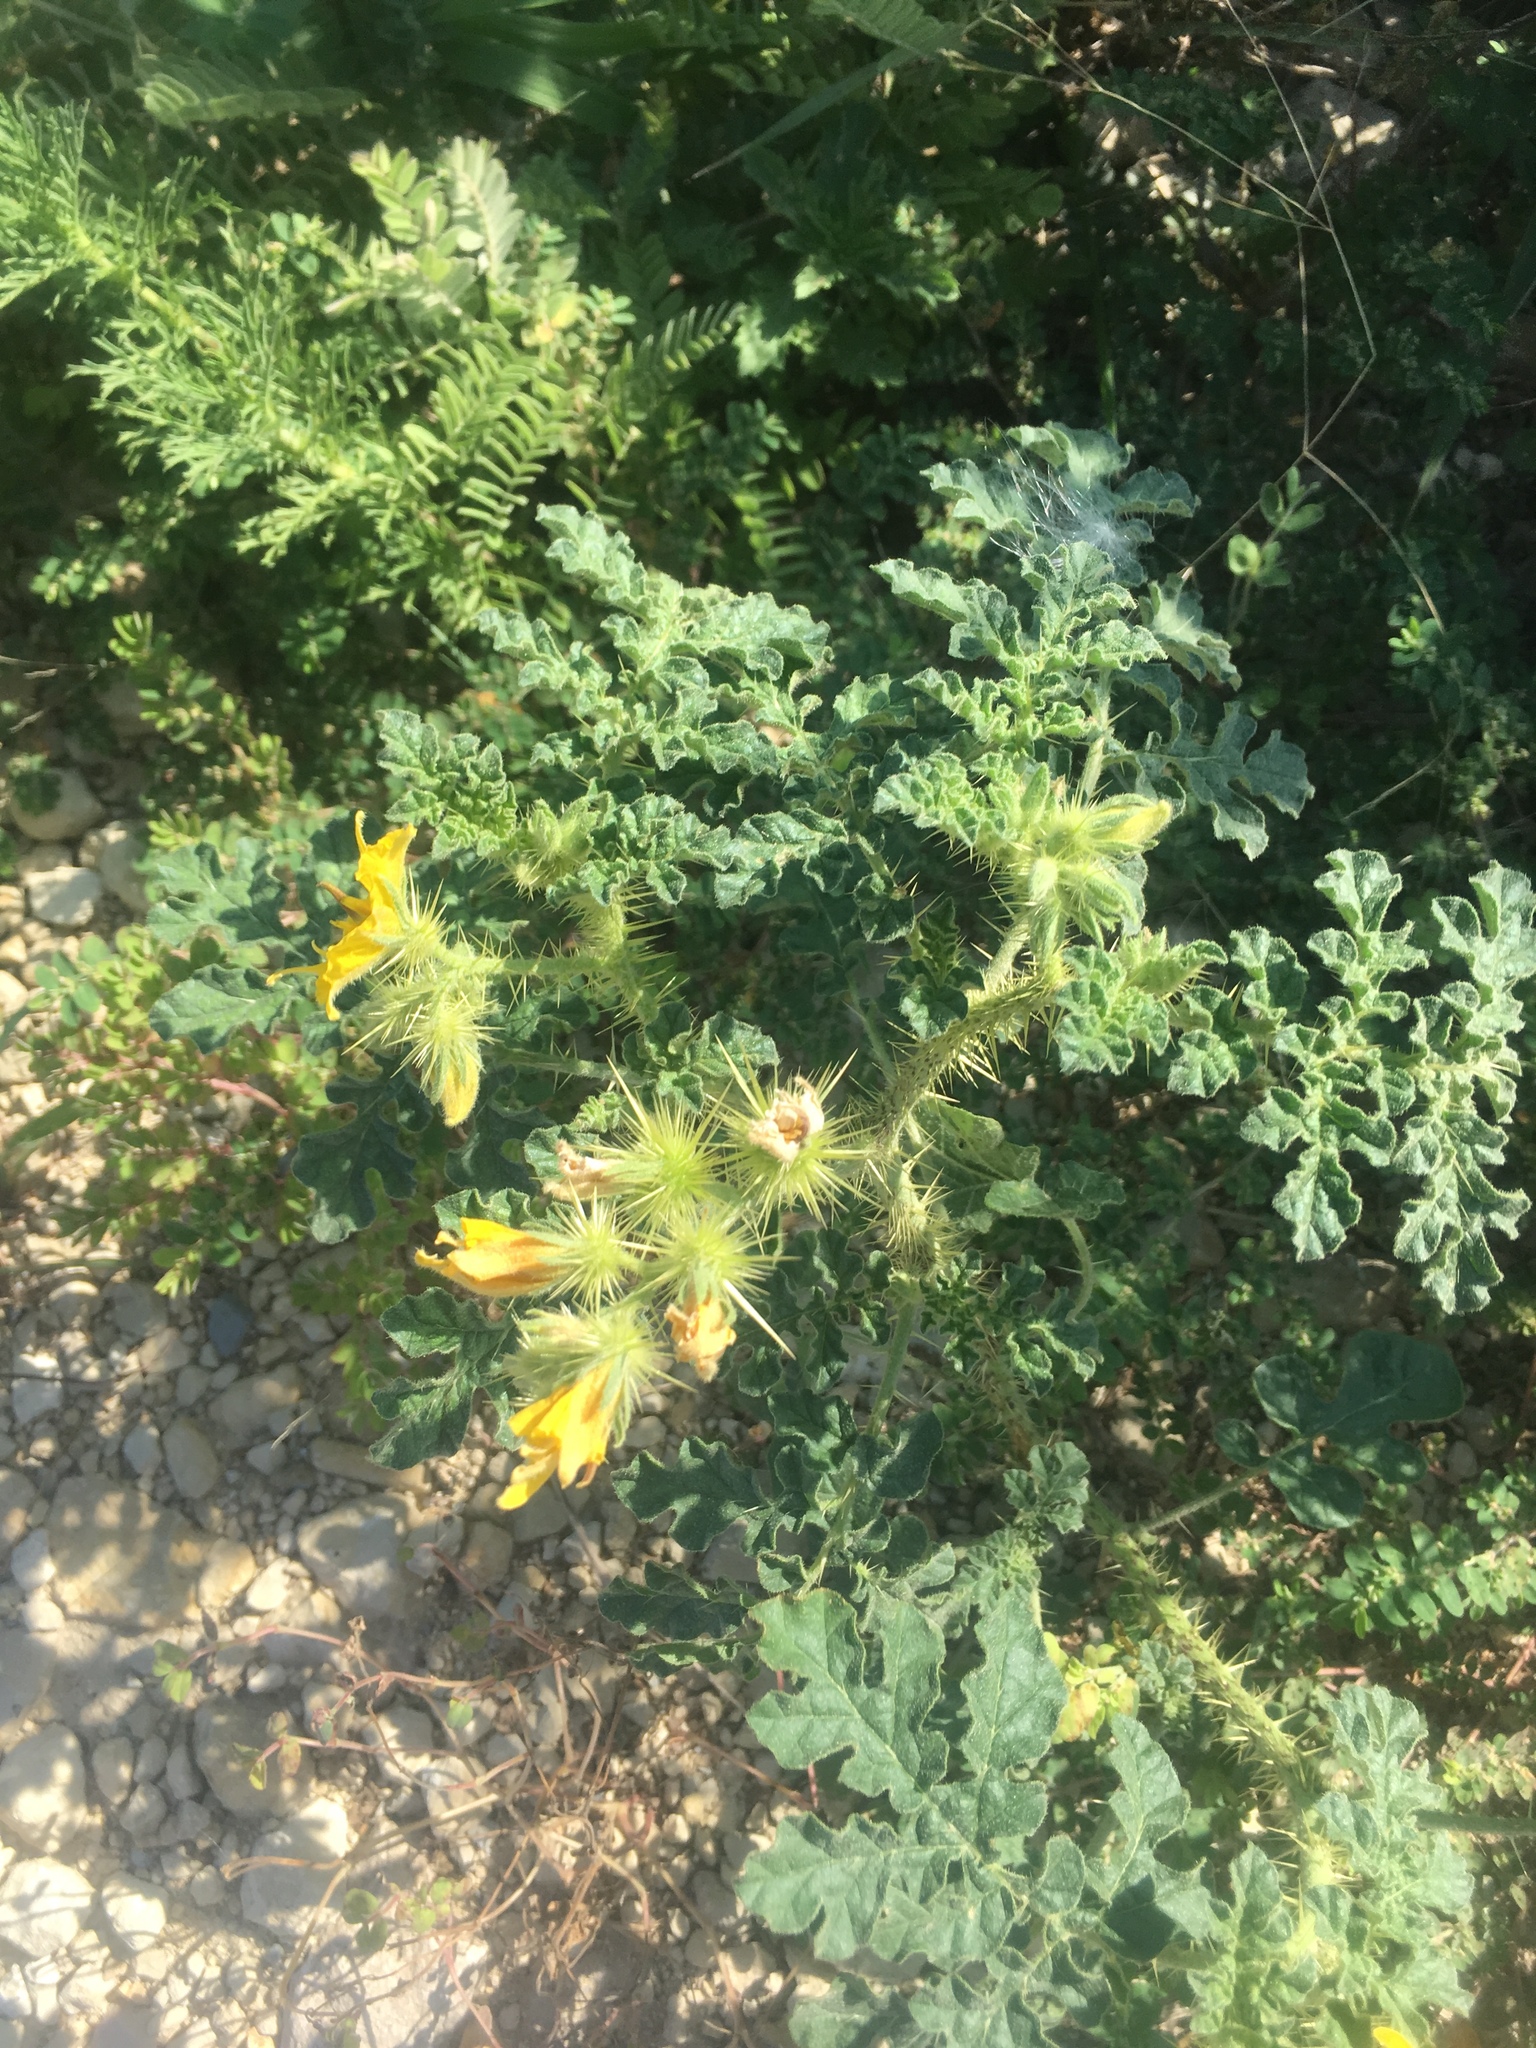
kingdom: Plantae
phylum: Tracheophyta
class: Magnoliopsida
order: Solanales
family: Solanaceae
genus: Solanum
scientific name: Solanum angustifolium
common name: Buffalobur nightshade
